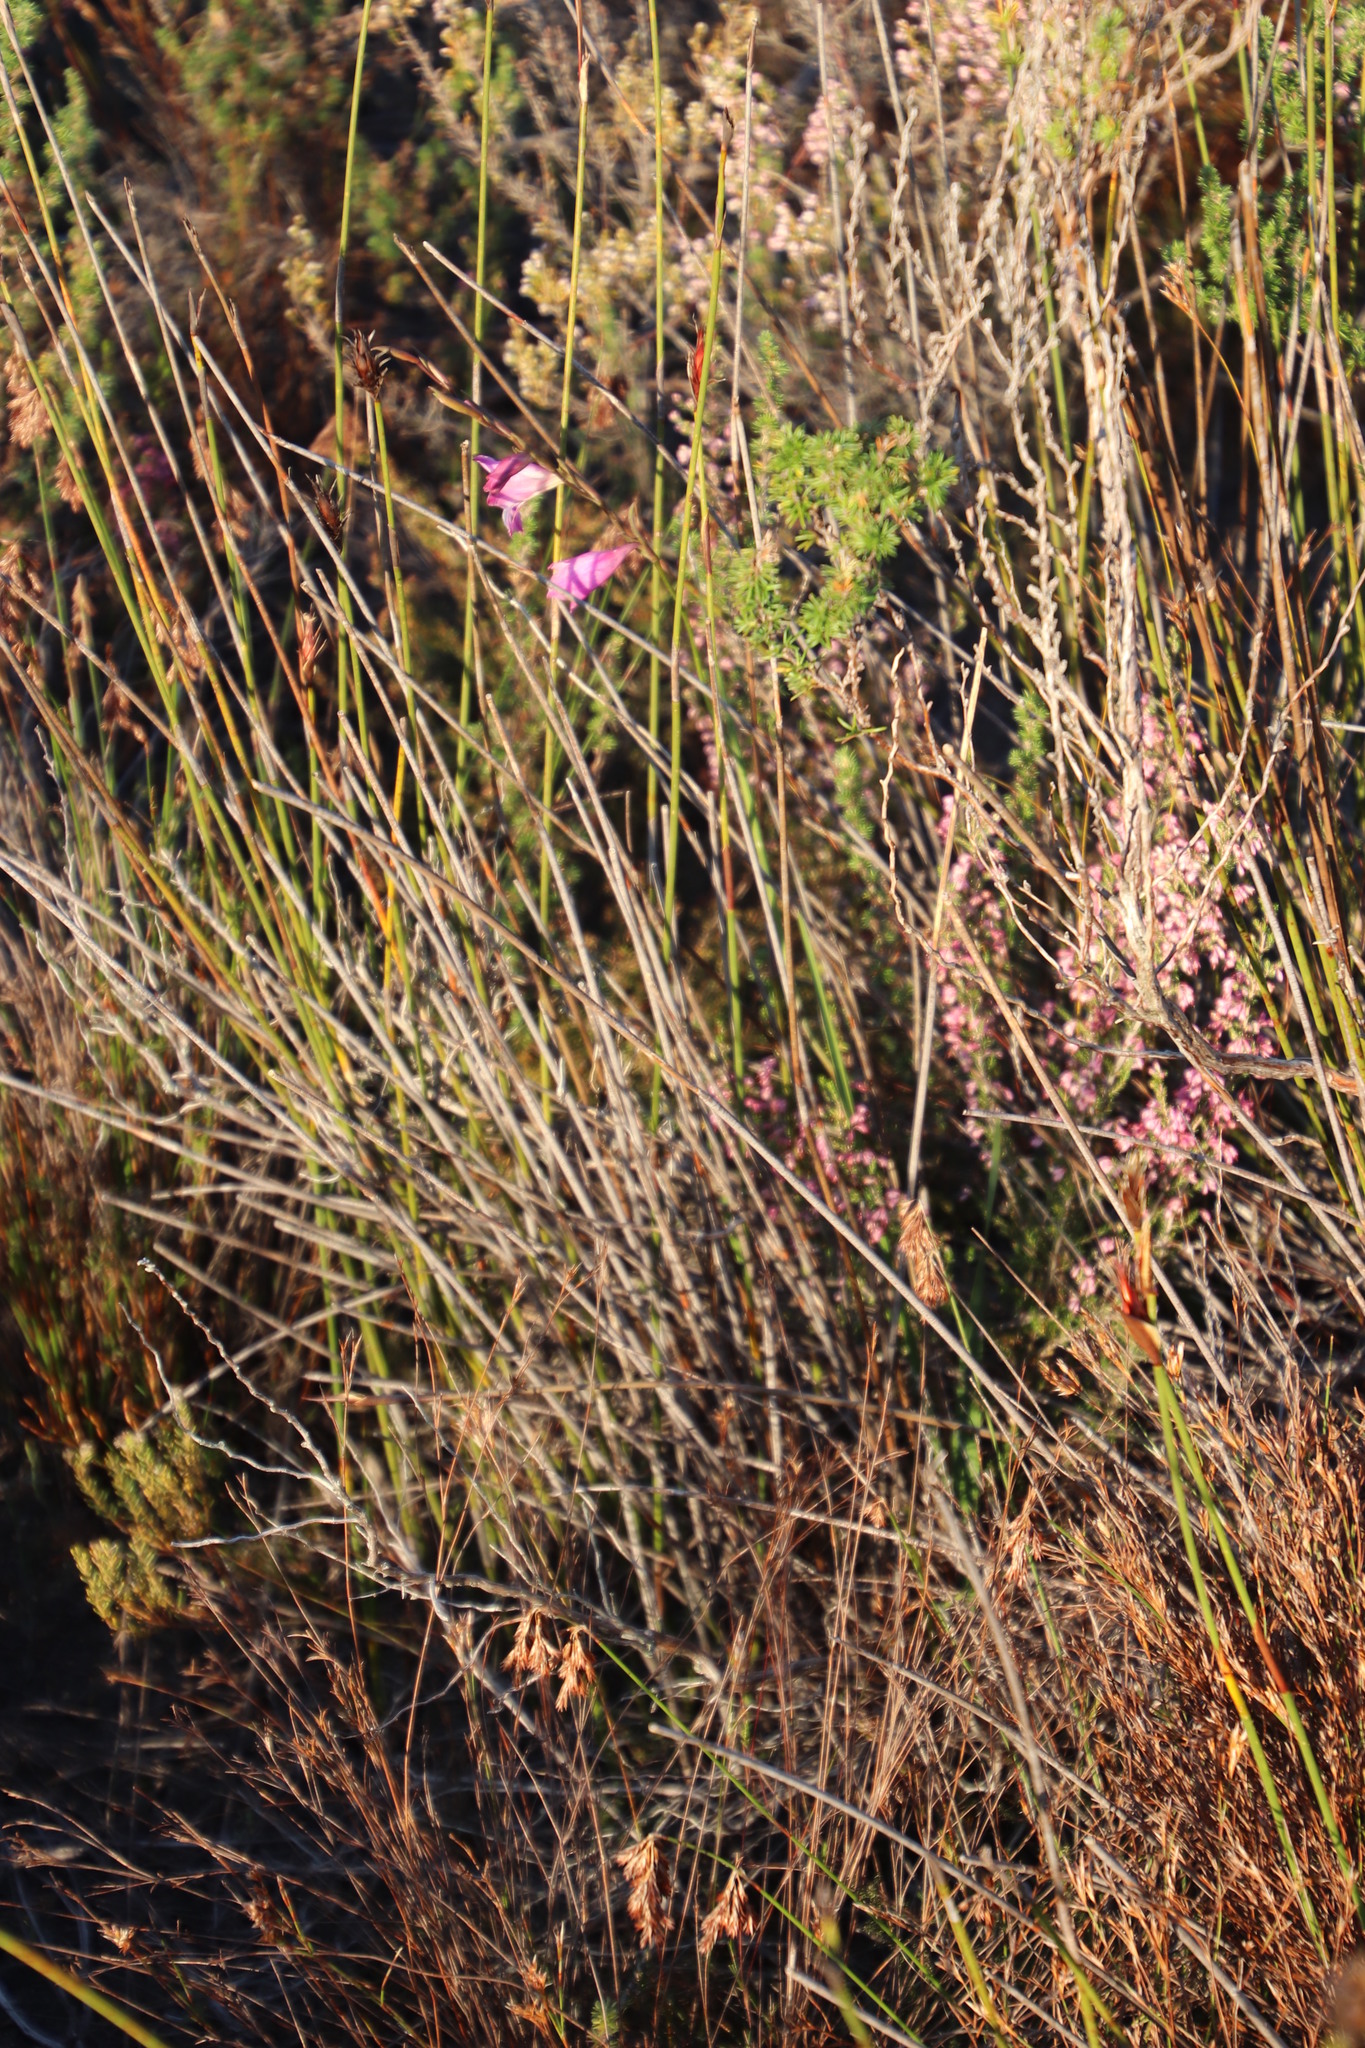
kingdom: Plantae
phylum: Tracheophyta
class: Liliopsida
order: Asparagales
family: Iridaceae
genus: Gladiolus
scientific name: Gladiolus hirsutus
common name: Small pink afrikaner
